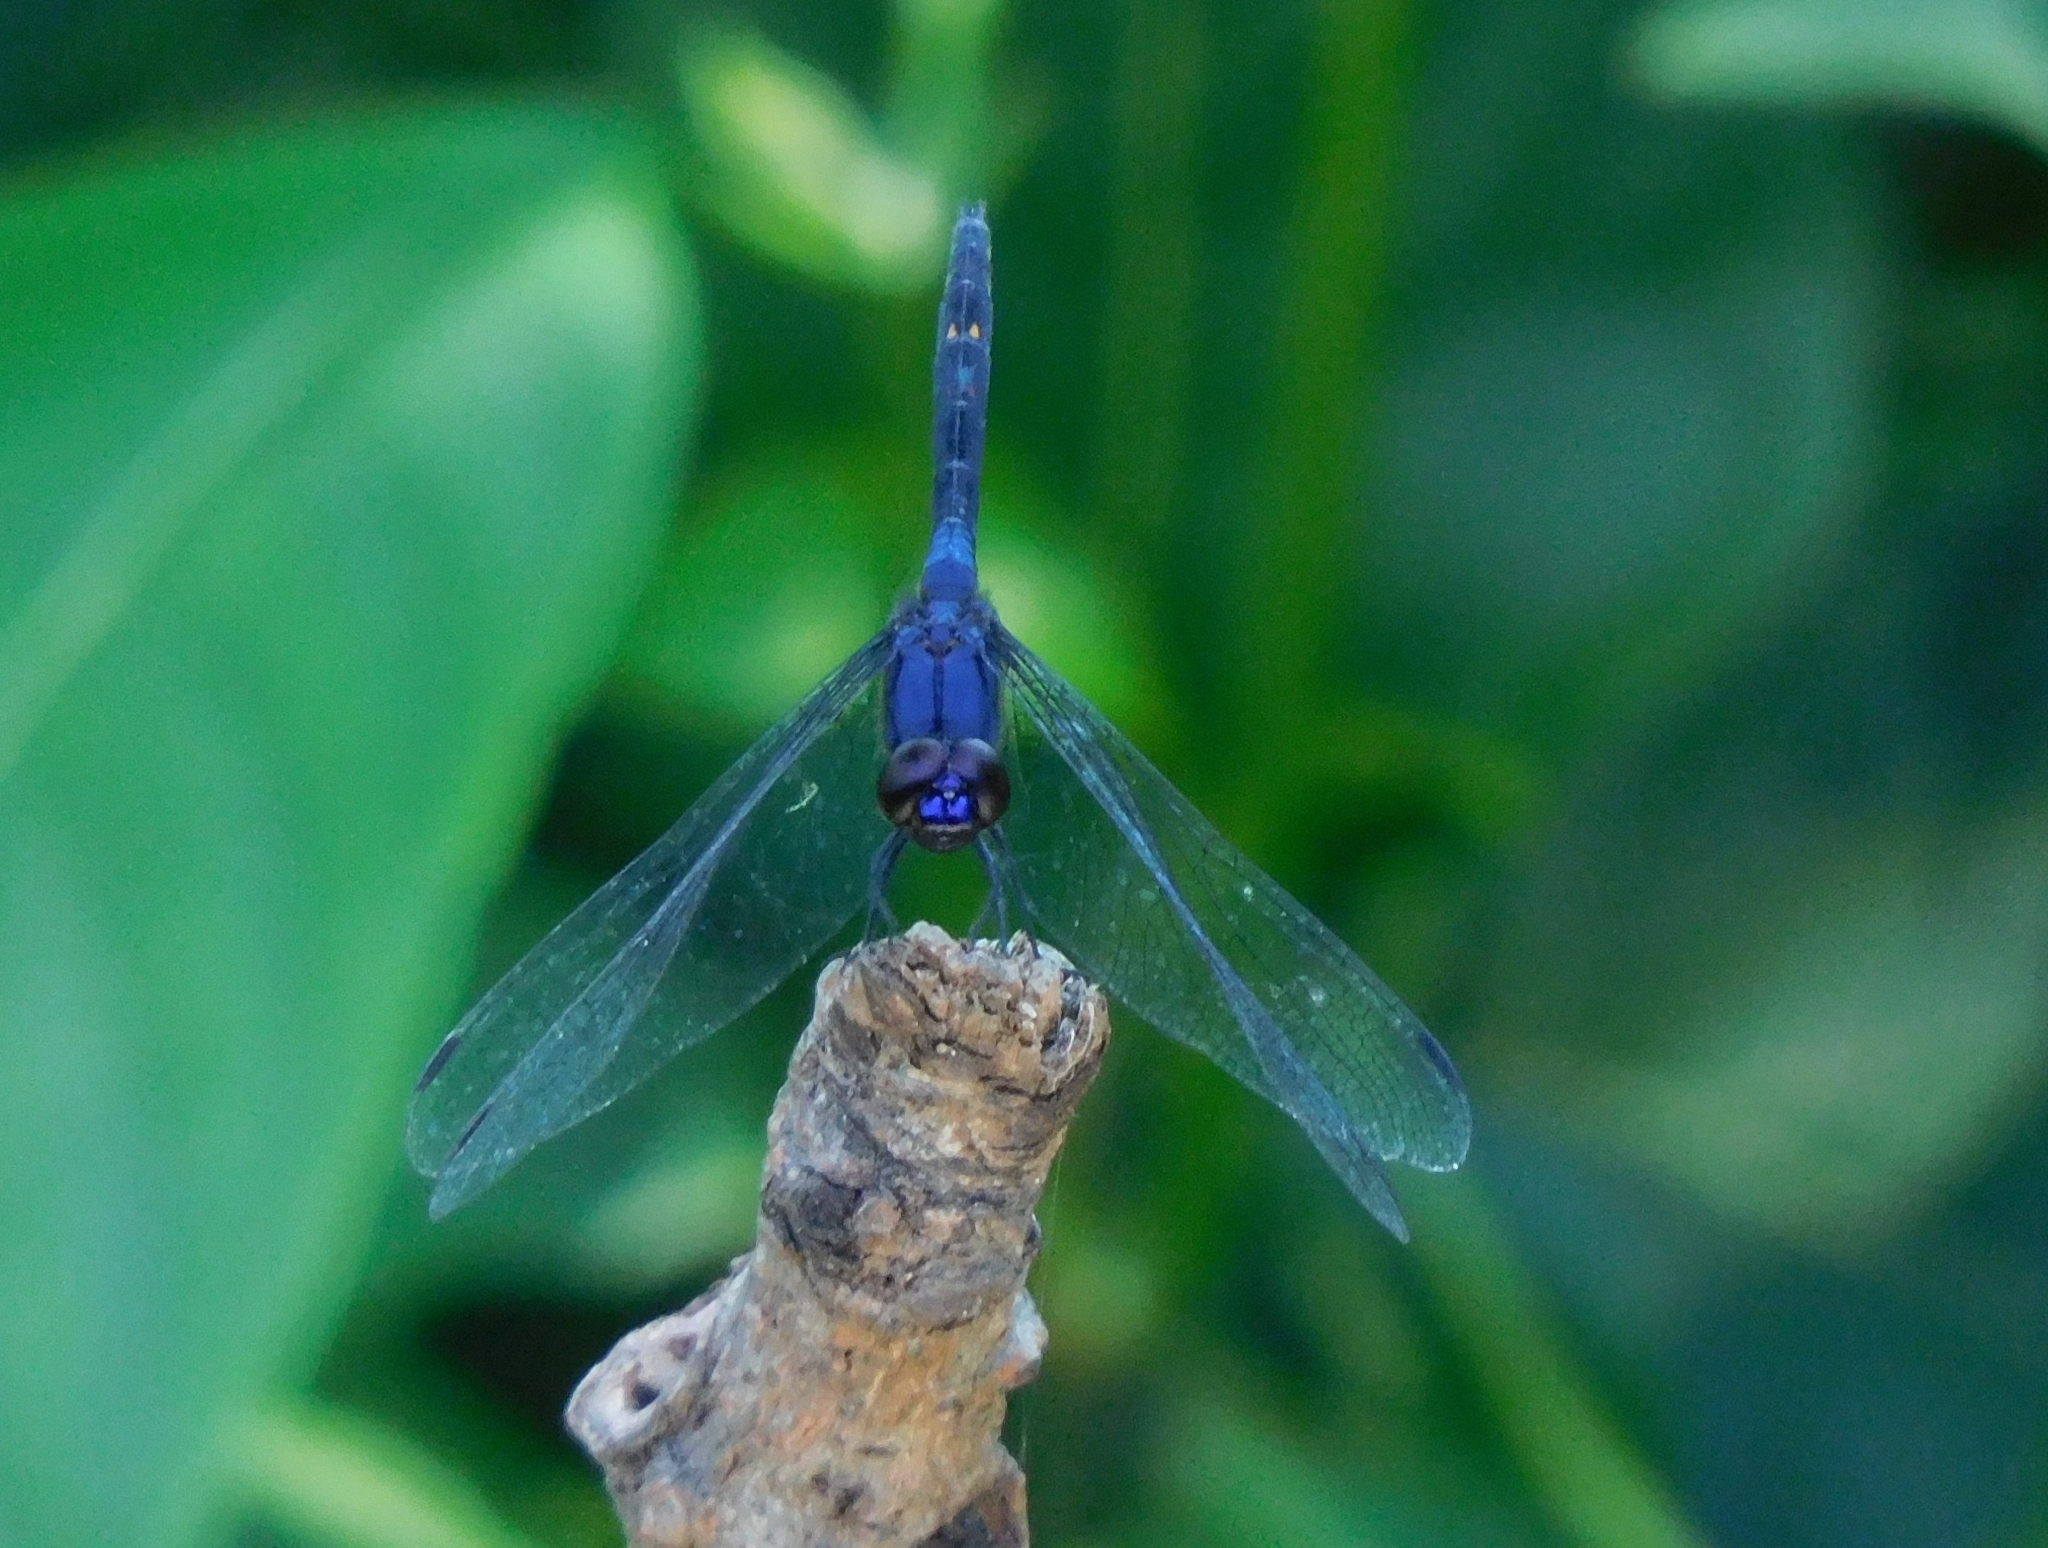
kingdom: Animalia
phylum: Arthropoda
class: Insecta
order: Odonata
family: Libellulidae
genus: Trithemis
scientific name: Trithemis festiva
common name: Indigo dropwing
